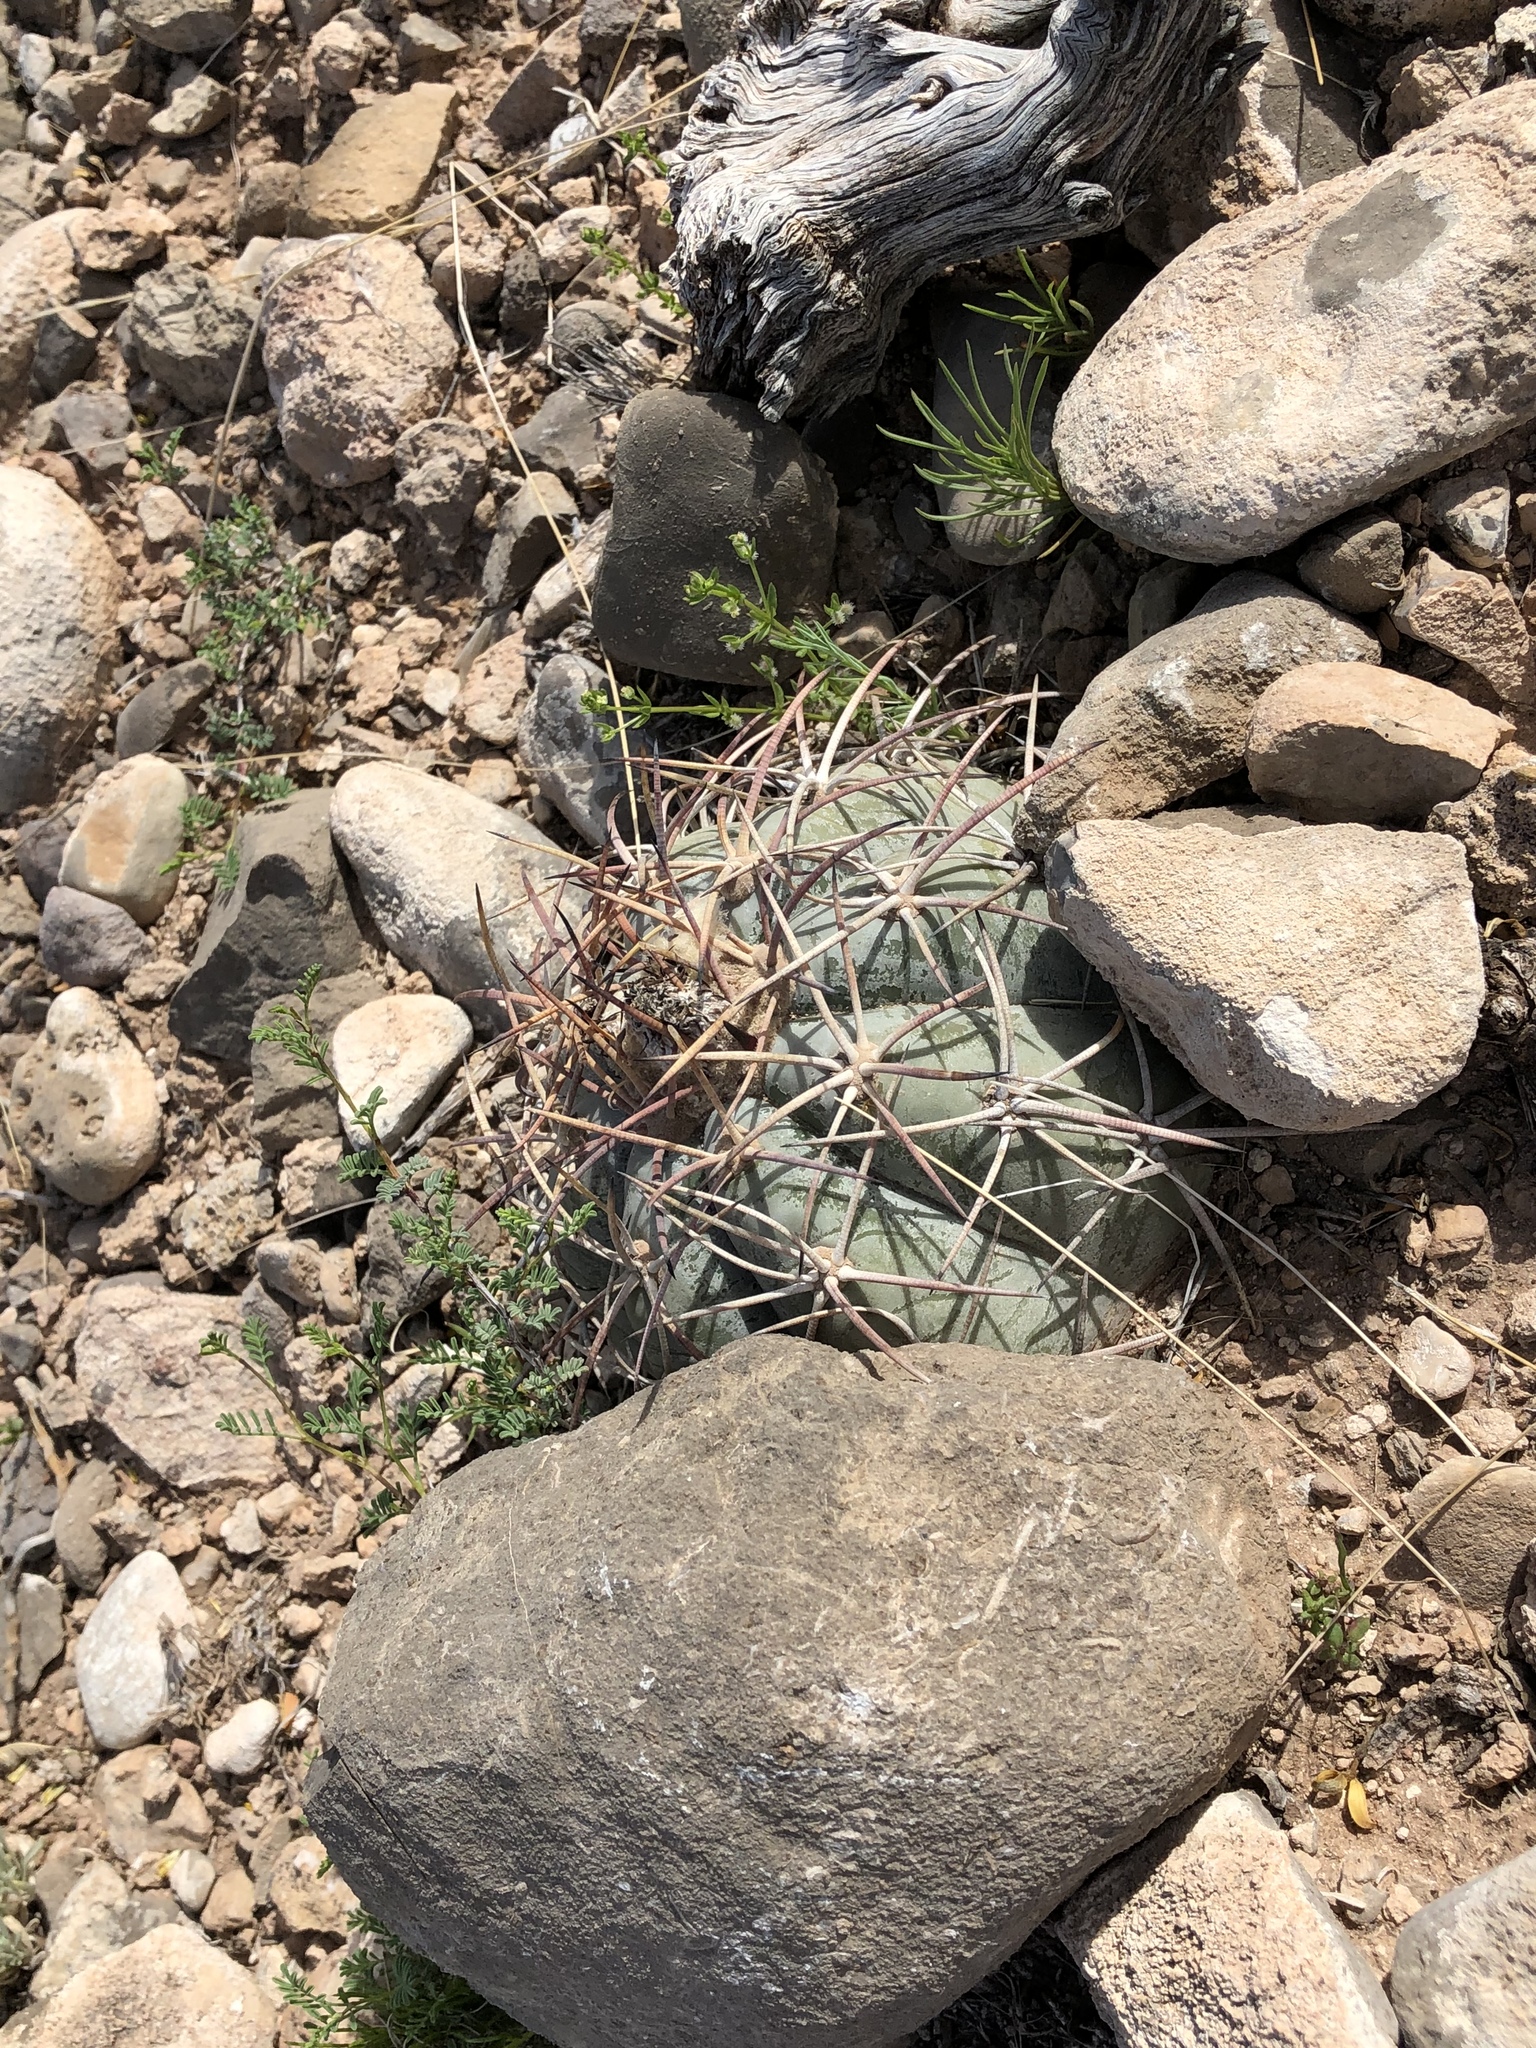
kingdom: Plantae
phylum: Tracheophyta
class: Magnoliopsida
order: Caryophyllales
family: Cactaceae
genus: Echinocactus
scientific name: Echinocactus horizonthalonius
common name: Devilshead
